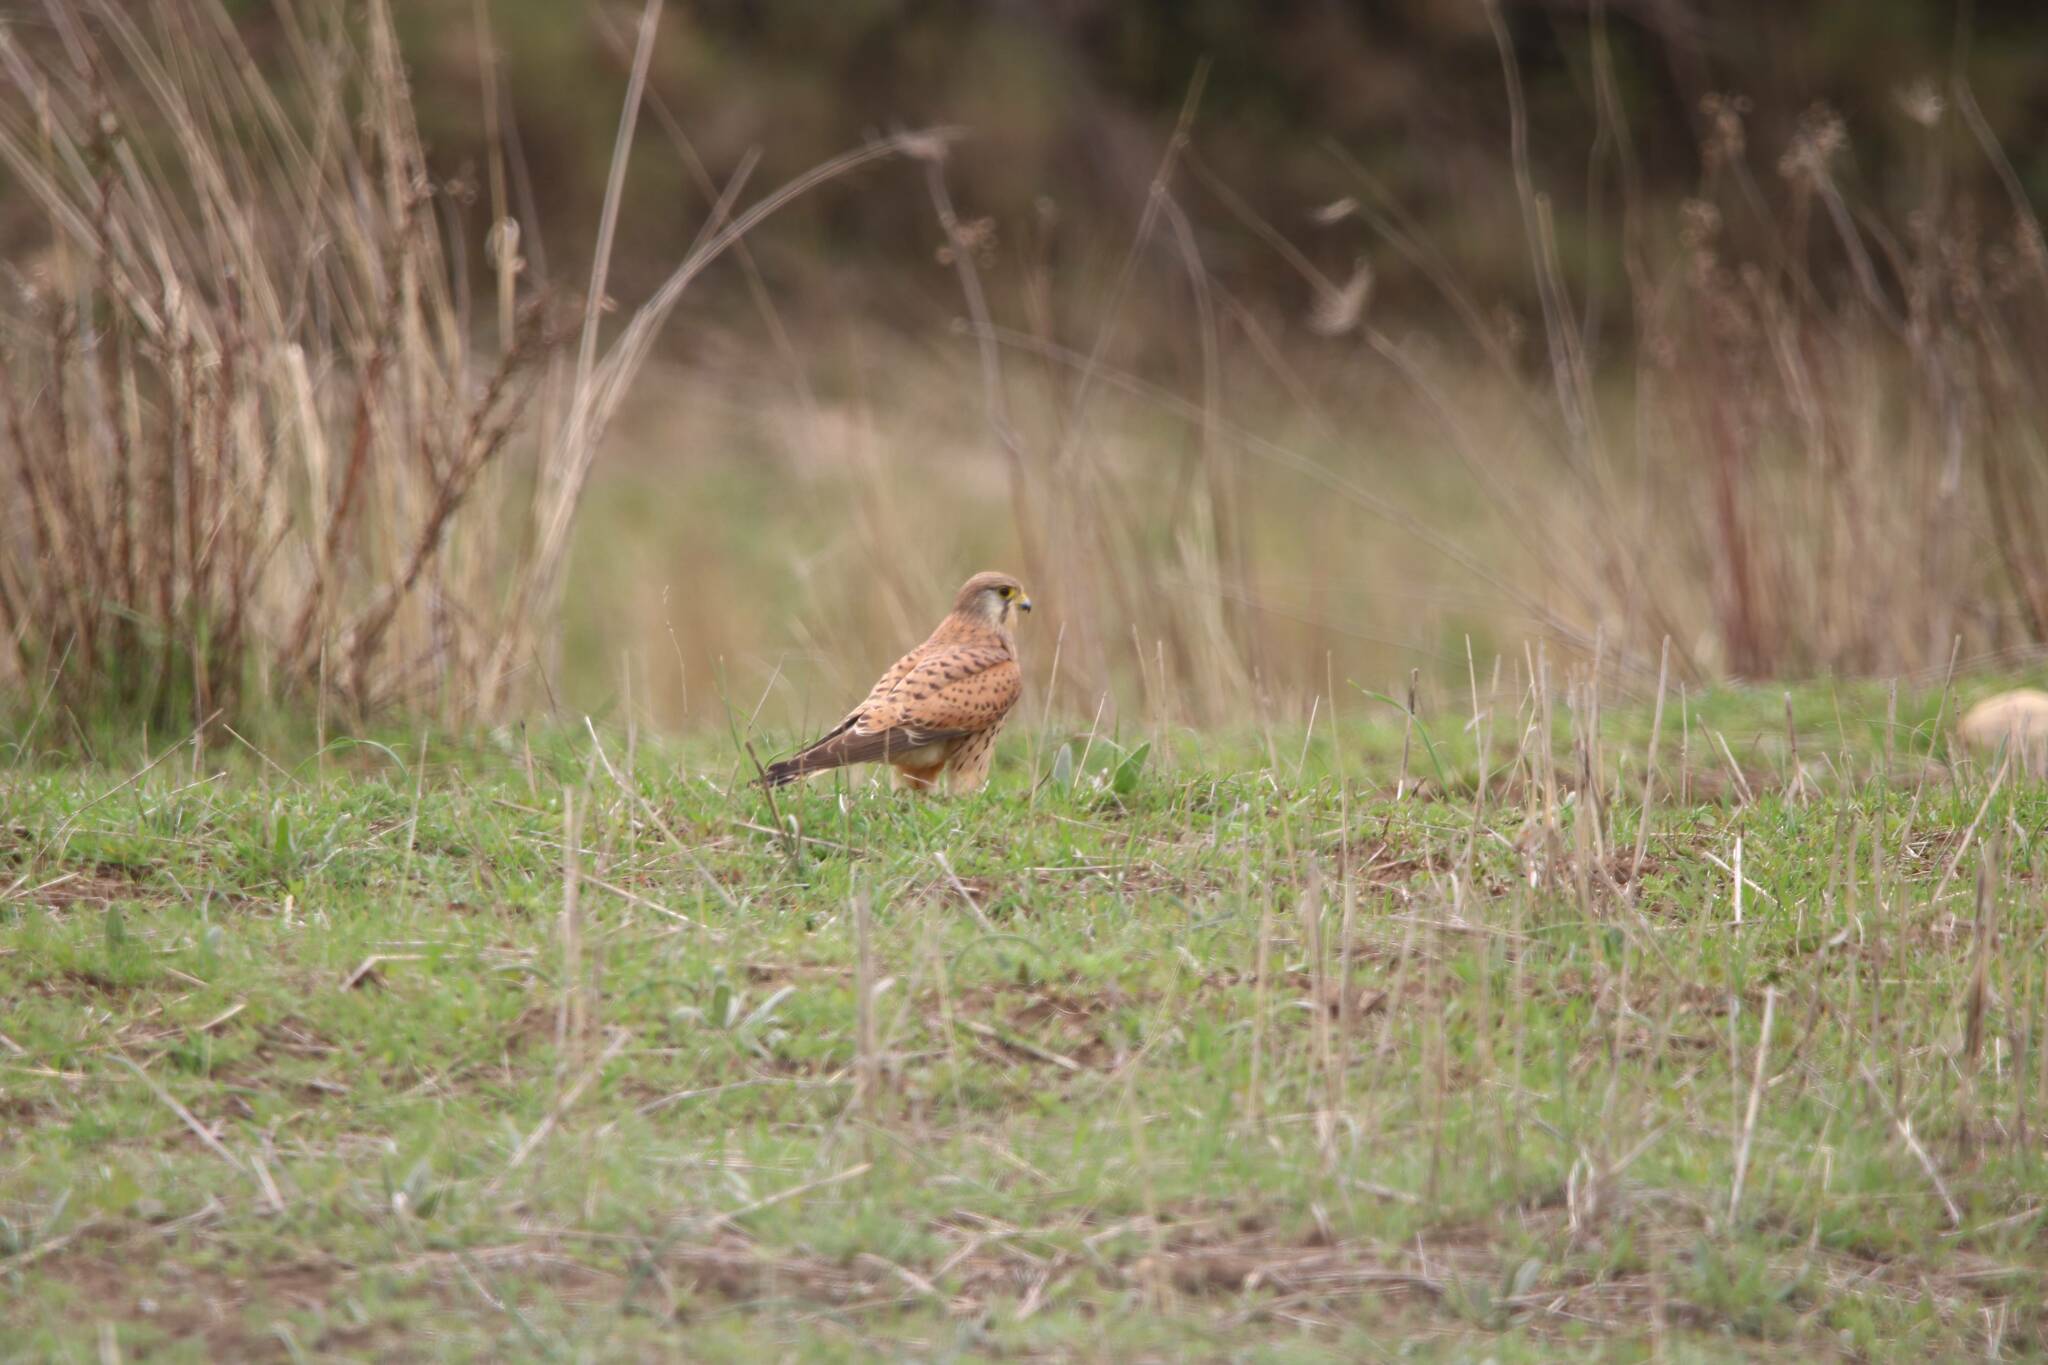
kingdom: Animalia
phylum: Chordata
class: Aves
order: Falconiformes
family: Falconidae
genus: Falco
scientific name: Falco tinnunculus
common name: Common kestrel
